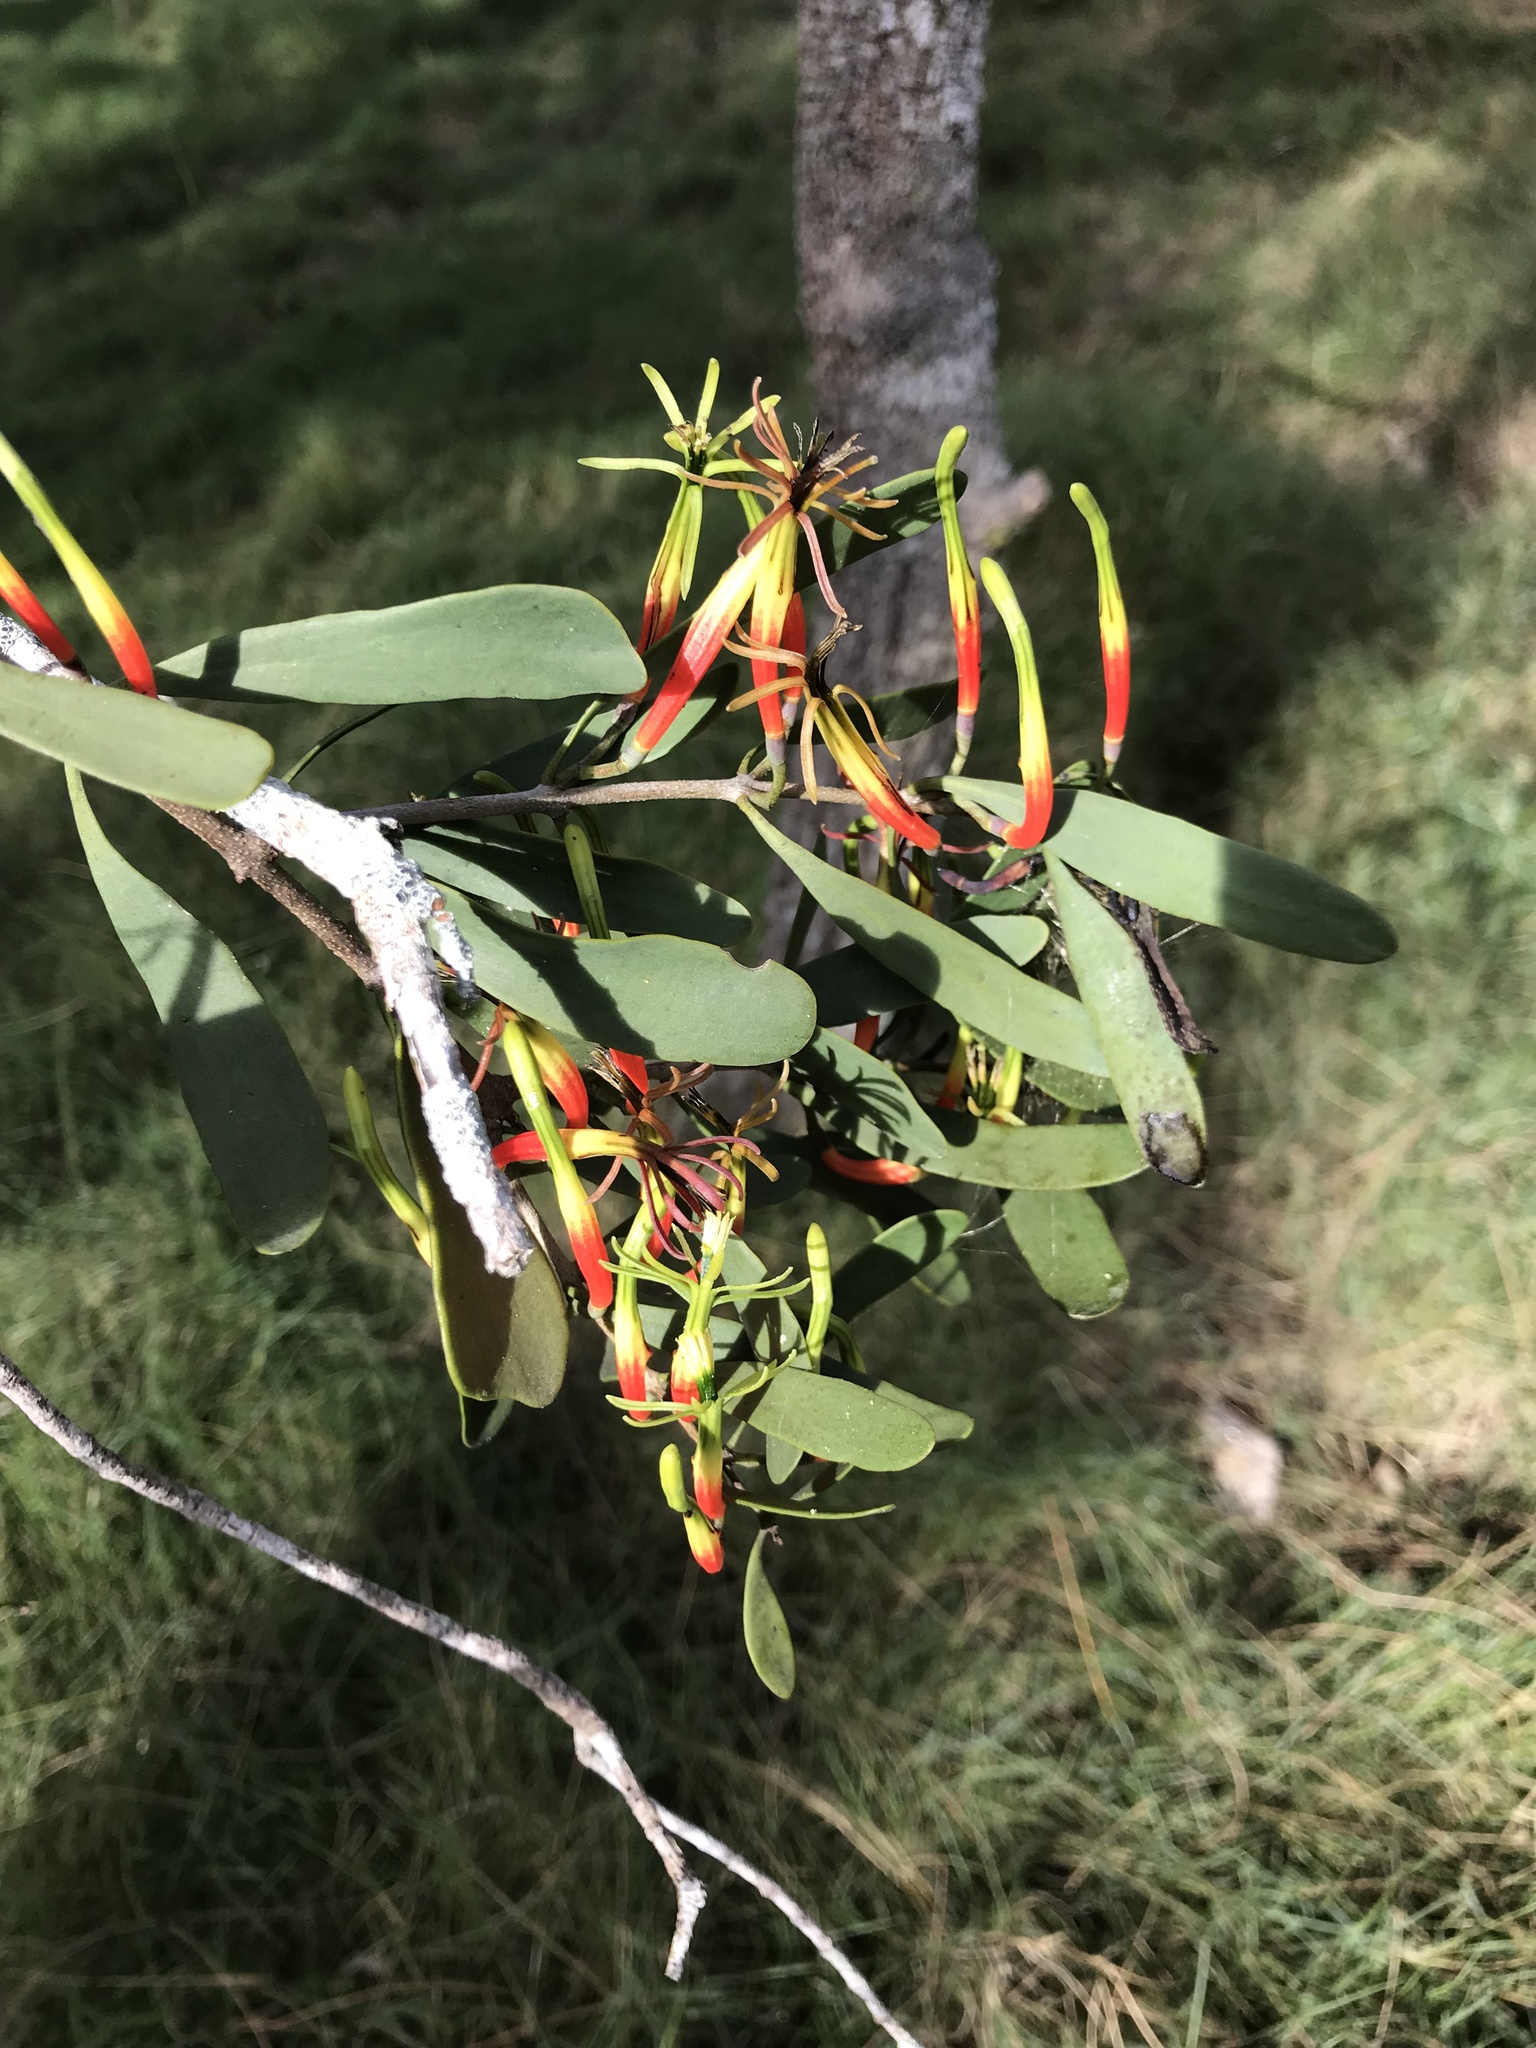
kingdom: Plantae
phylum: Tracheophyta
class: Magnoliopsida
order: Santalales
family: Loranthaceae
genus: Lysiana
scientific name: Lysiana maritima
